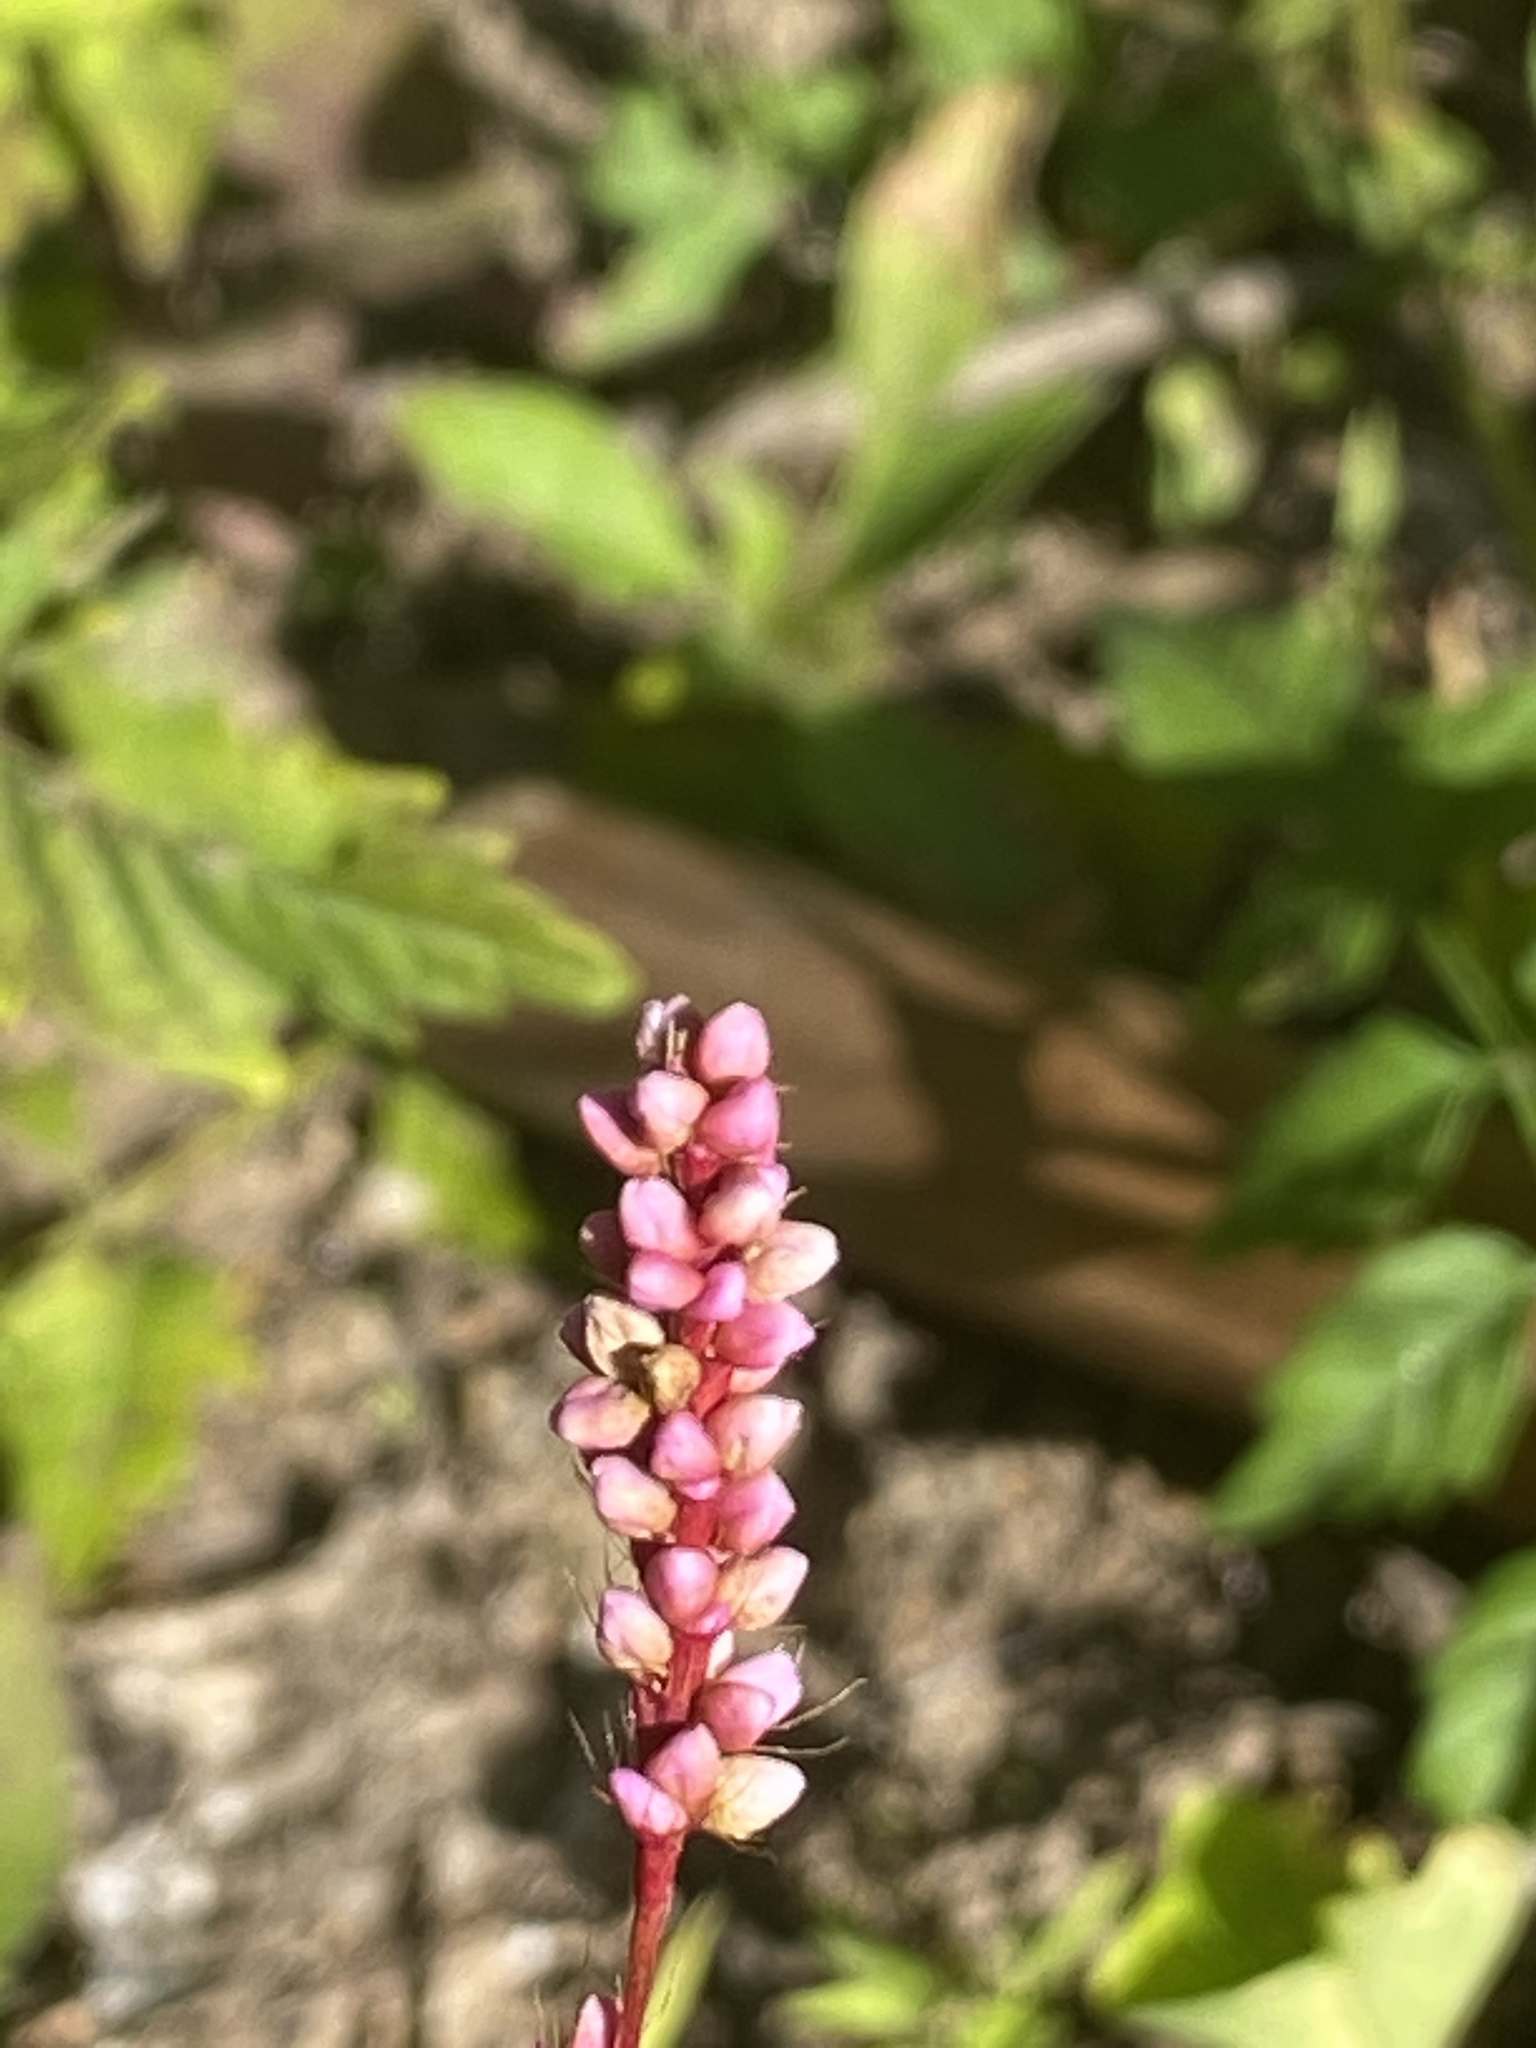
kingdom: Plantae
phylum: Tracheophyta
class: Magnoliopsida
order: Caryophyllales
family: Polygonaceae
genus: Persicaria
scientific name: Persicaria longiseta
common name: Bristly lady's-thumb
